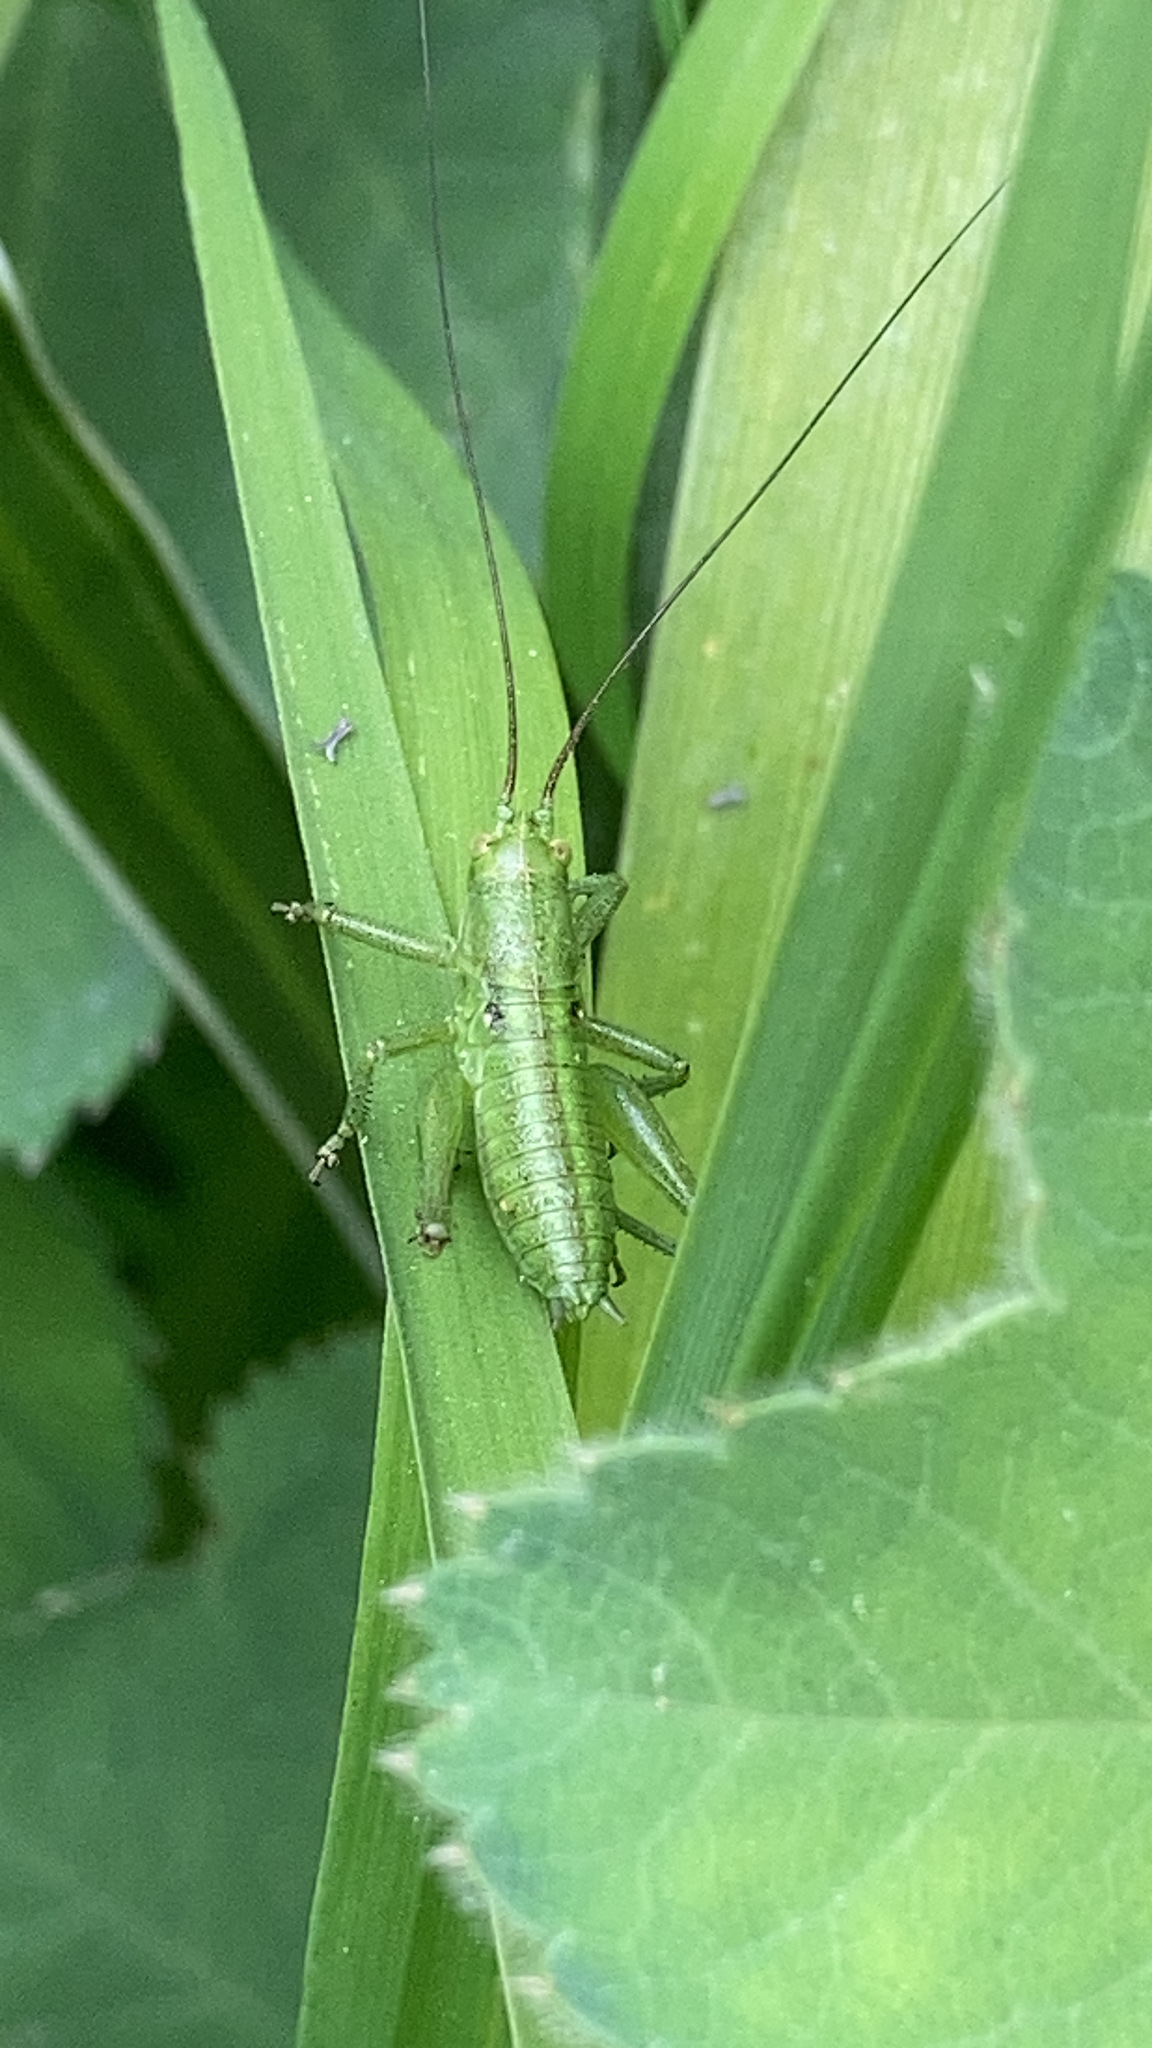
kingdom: Animalia
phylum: Arthropoda
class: Insecta
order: Orthoptera
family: Tettigoniidae
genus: Tettigonia
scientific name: Tettigonia viridissima
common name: Great green bush-cricket
